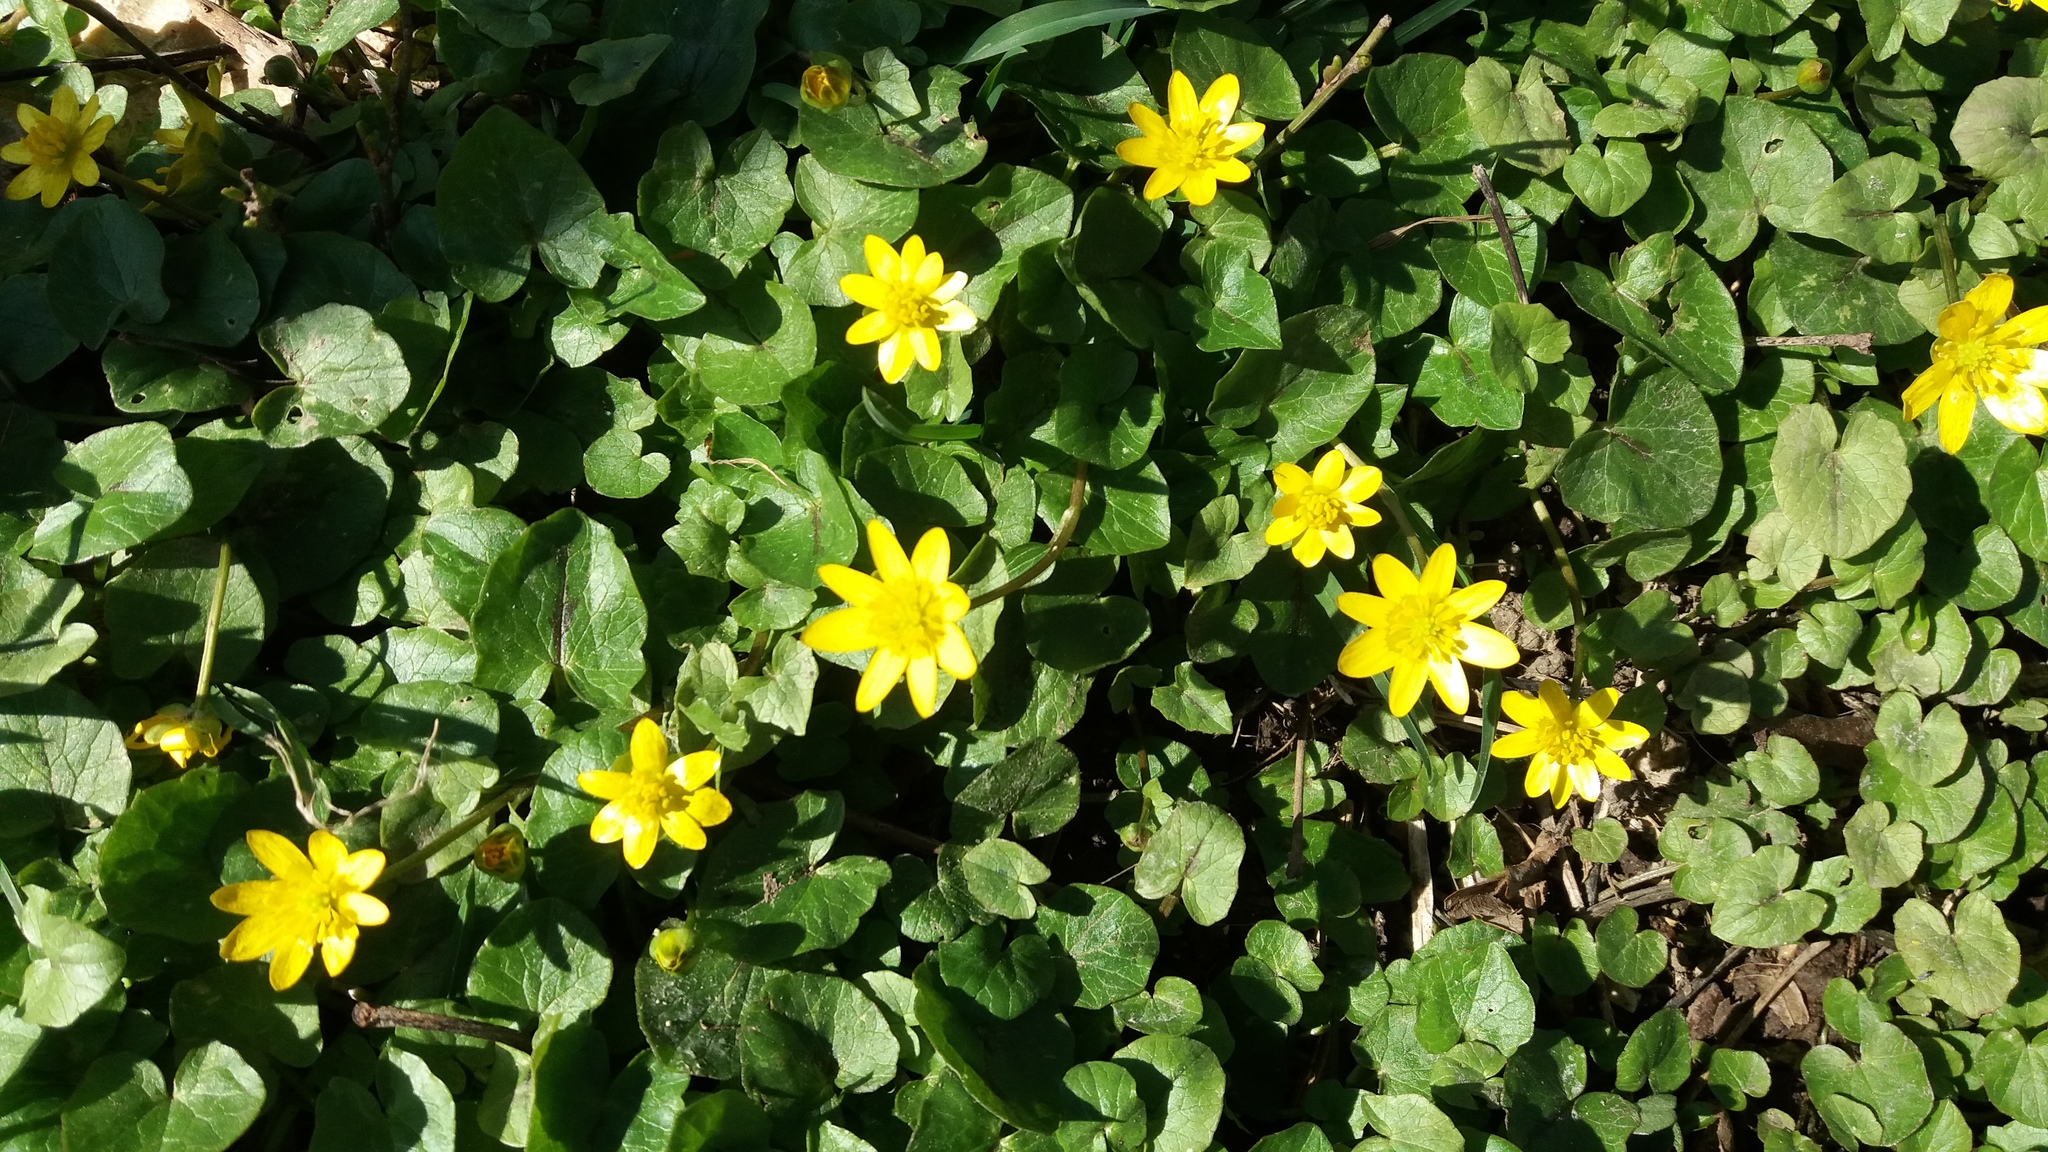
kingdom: Plantae
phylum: Tracheophyta
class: Magnoliopsida
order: Ranunculales
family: Ranunculaceae
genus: Ficaria
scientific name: Ficaria verna
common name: Lesser celandine
